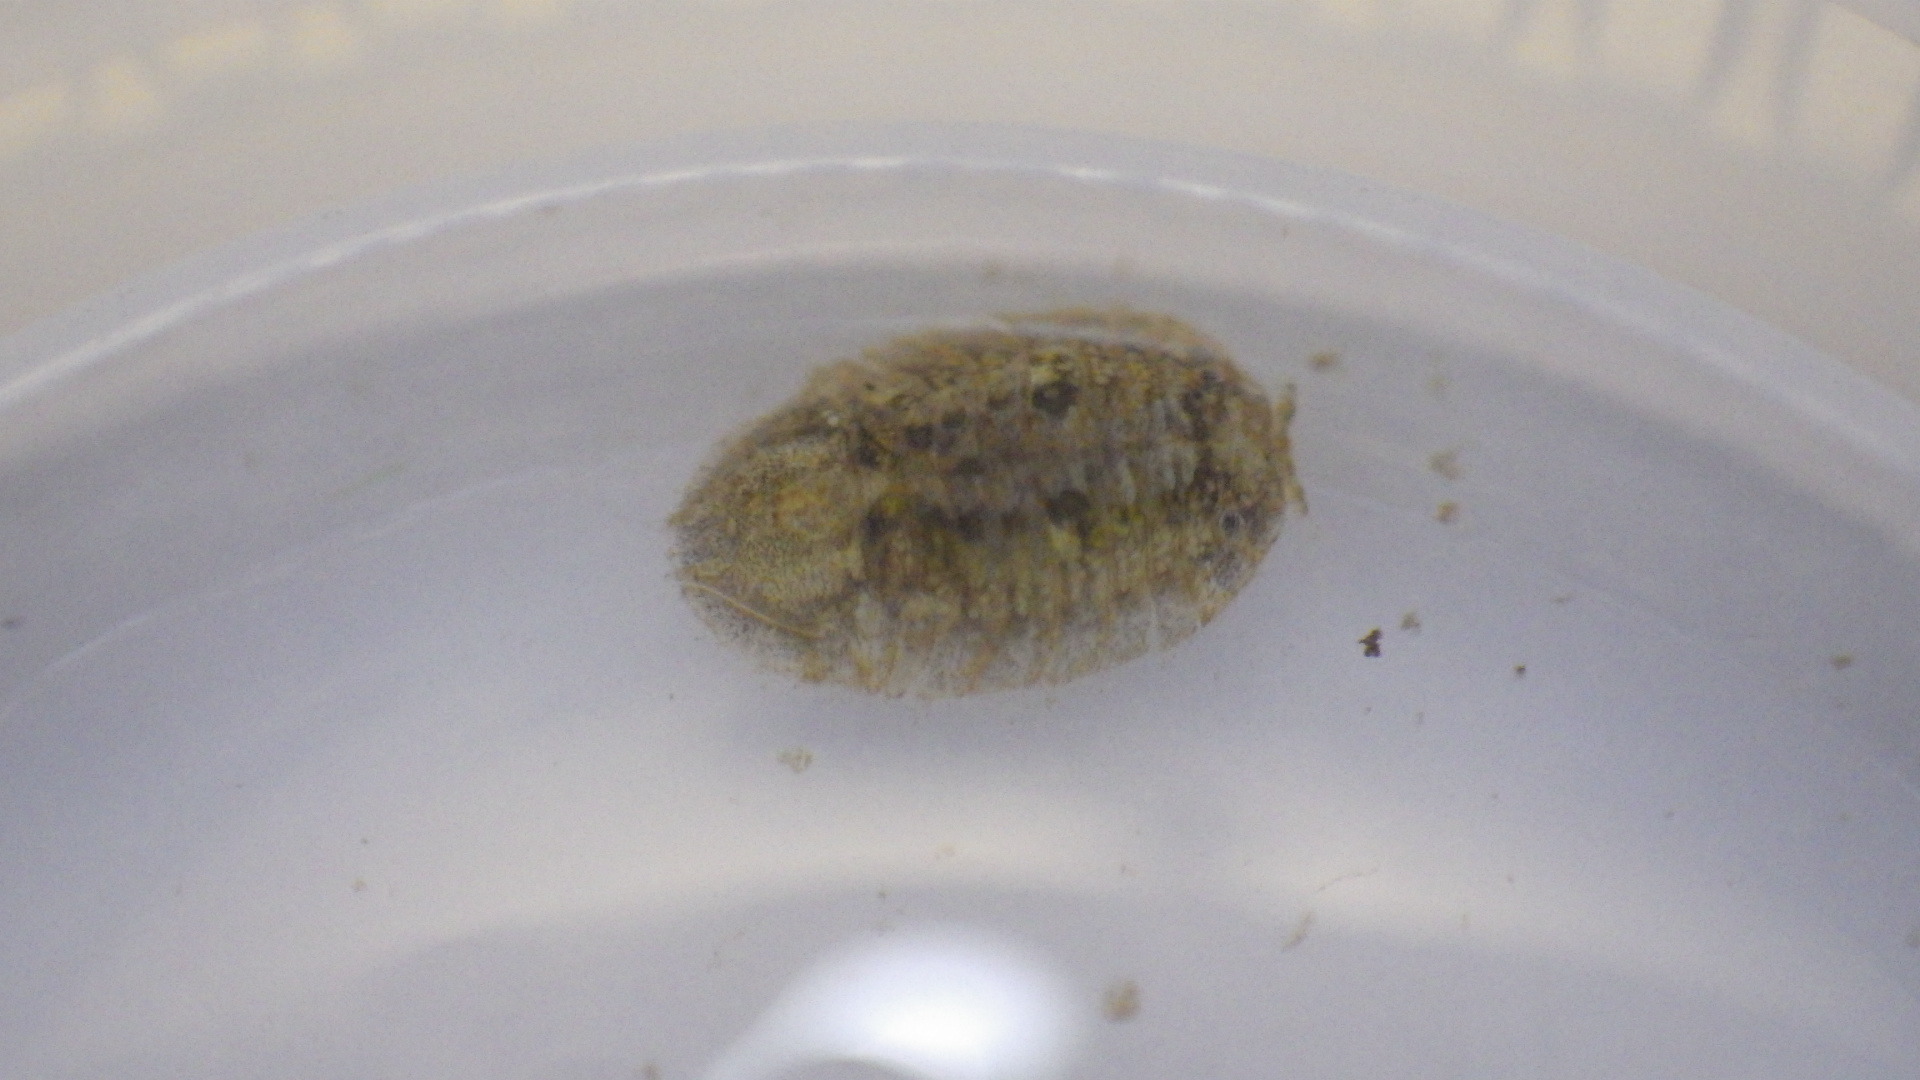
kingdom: Animalia
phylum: Arthropoda
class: Malacostraca
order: Isopoda
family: Sphaeromatidae
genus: Cassidinidea
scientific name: Cassidinidea ovalis
